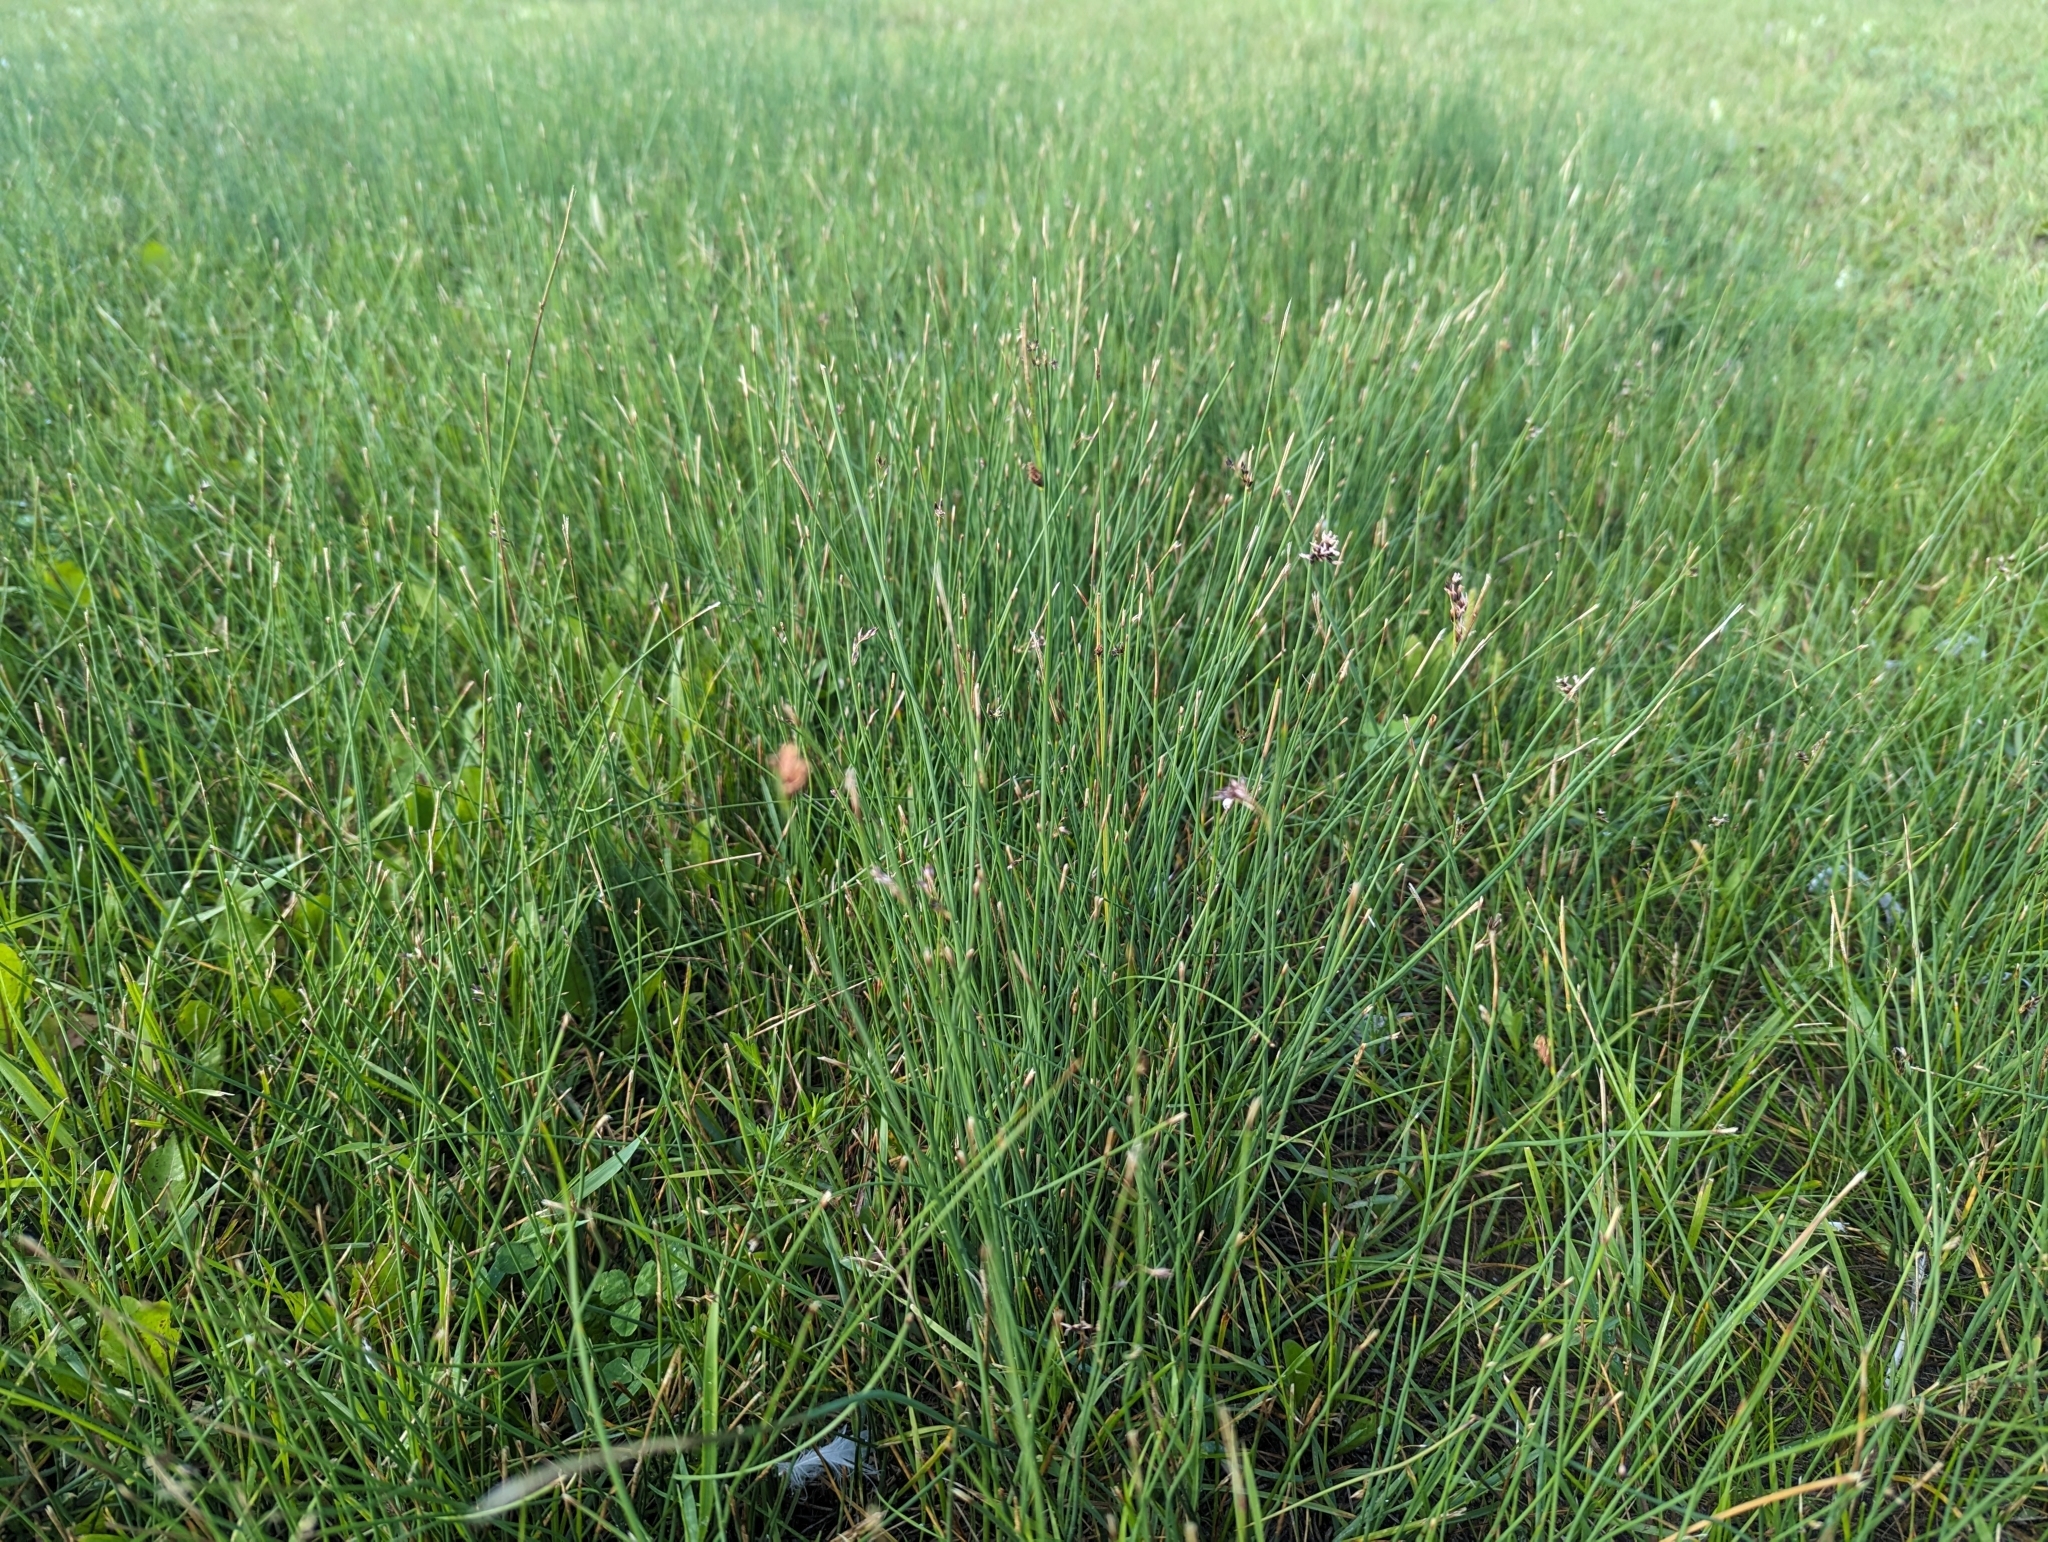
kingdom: Plantae
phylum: Tracheophyta
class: Liliopsida
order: Poales
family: Juncaceae
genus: Juncus
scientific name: Juncus balticus
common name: Baltic rush
